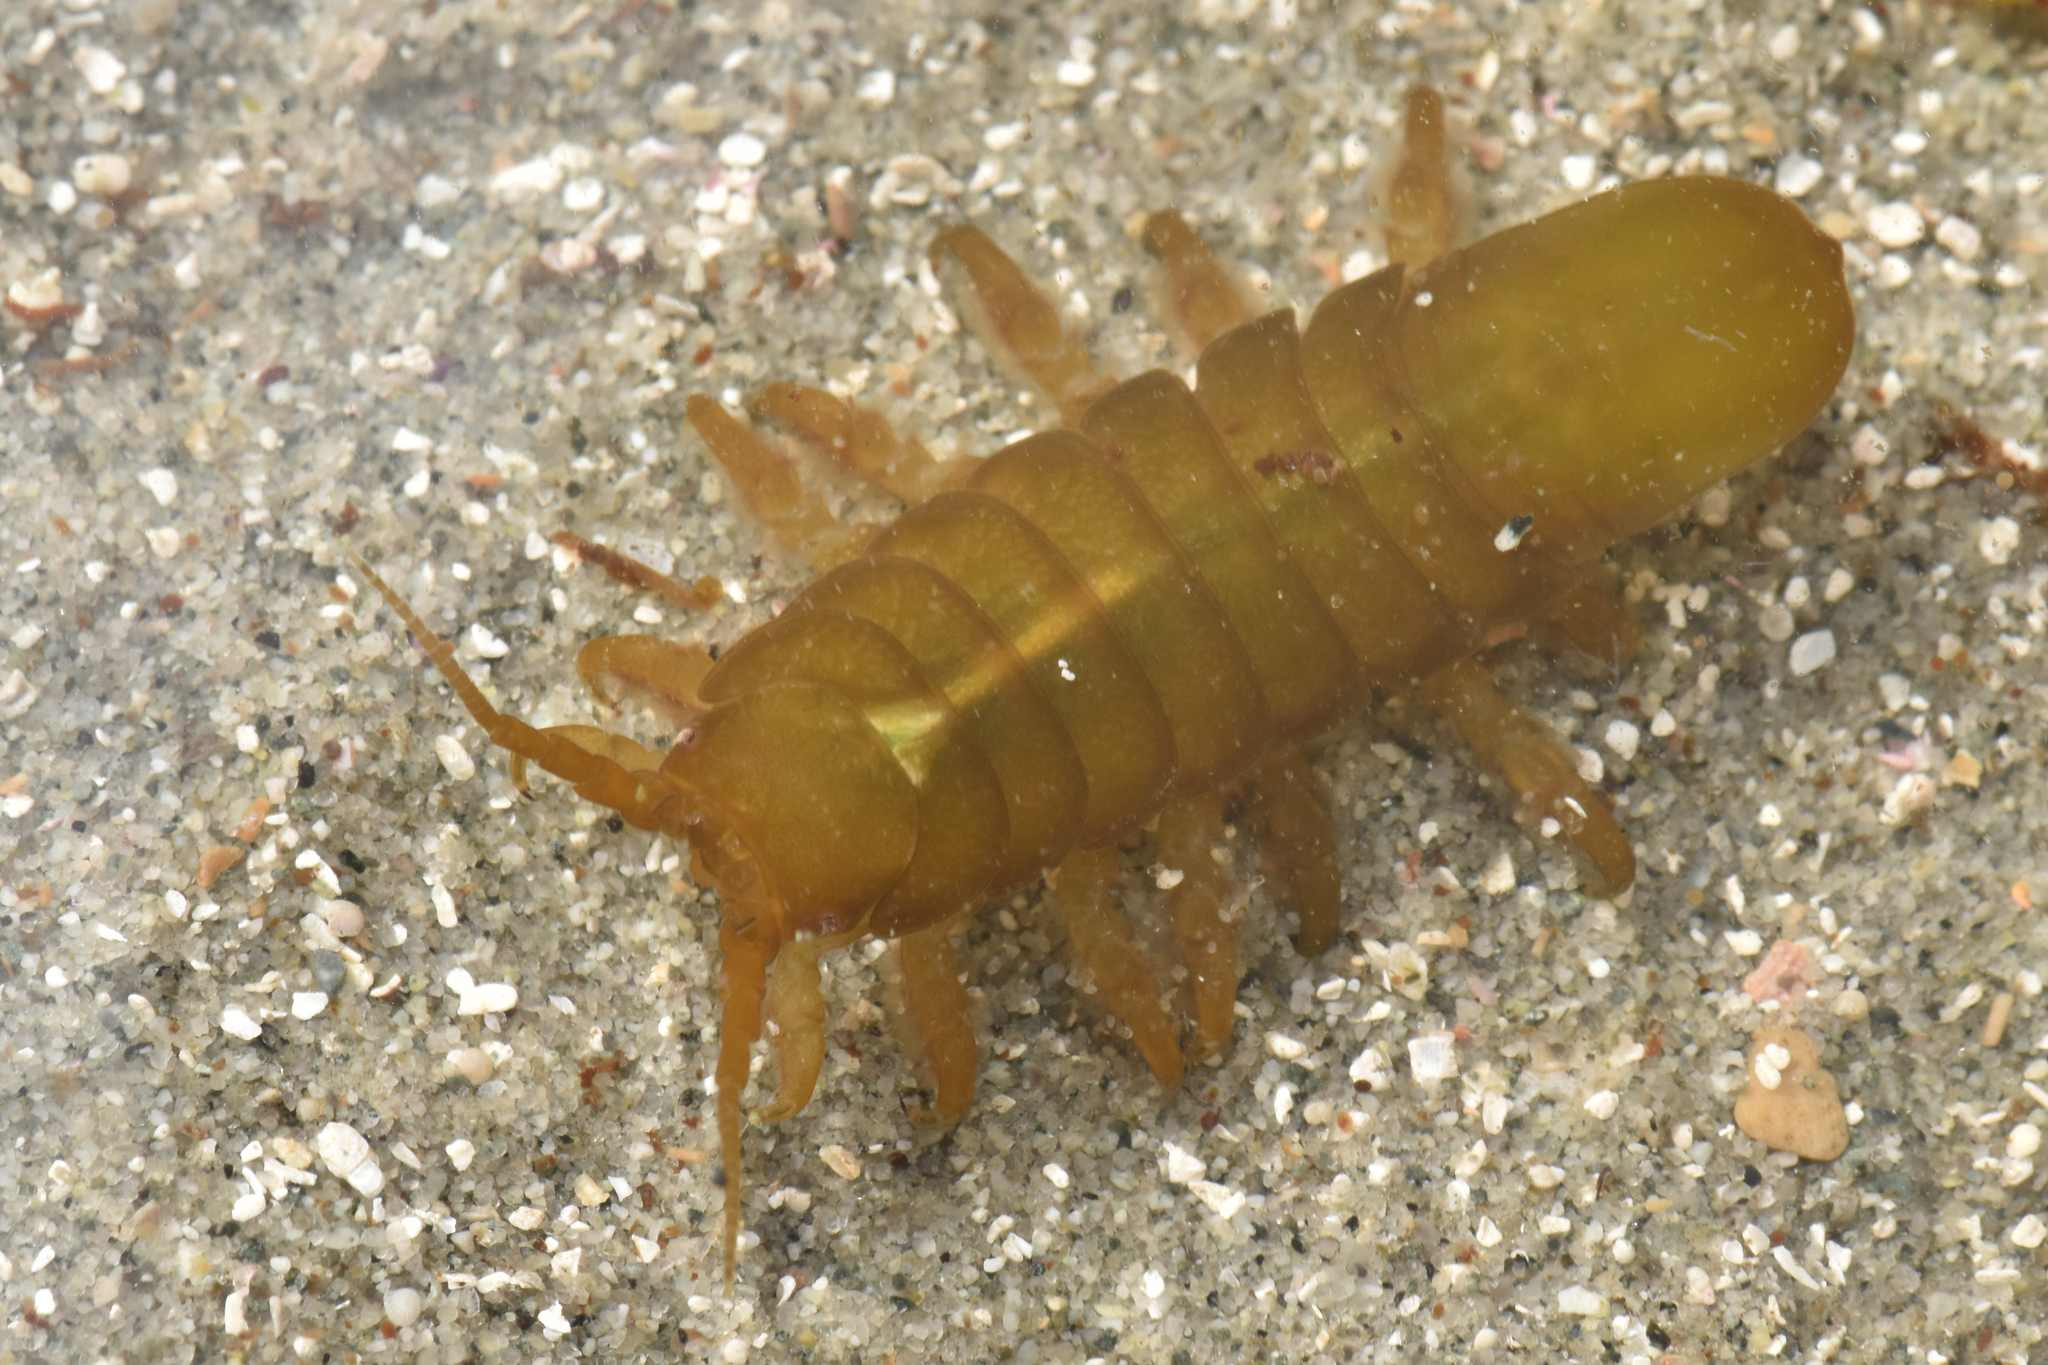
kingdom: Animalia
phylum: Arthropoda
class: Malacostraca
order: Isopoda
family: Idoteidae
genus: Pentidotea
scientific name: Pentidotea wosnesenskii
